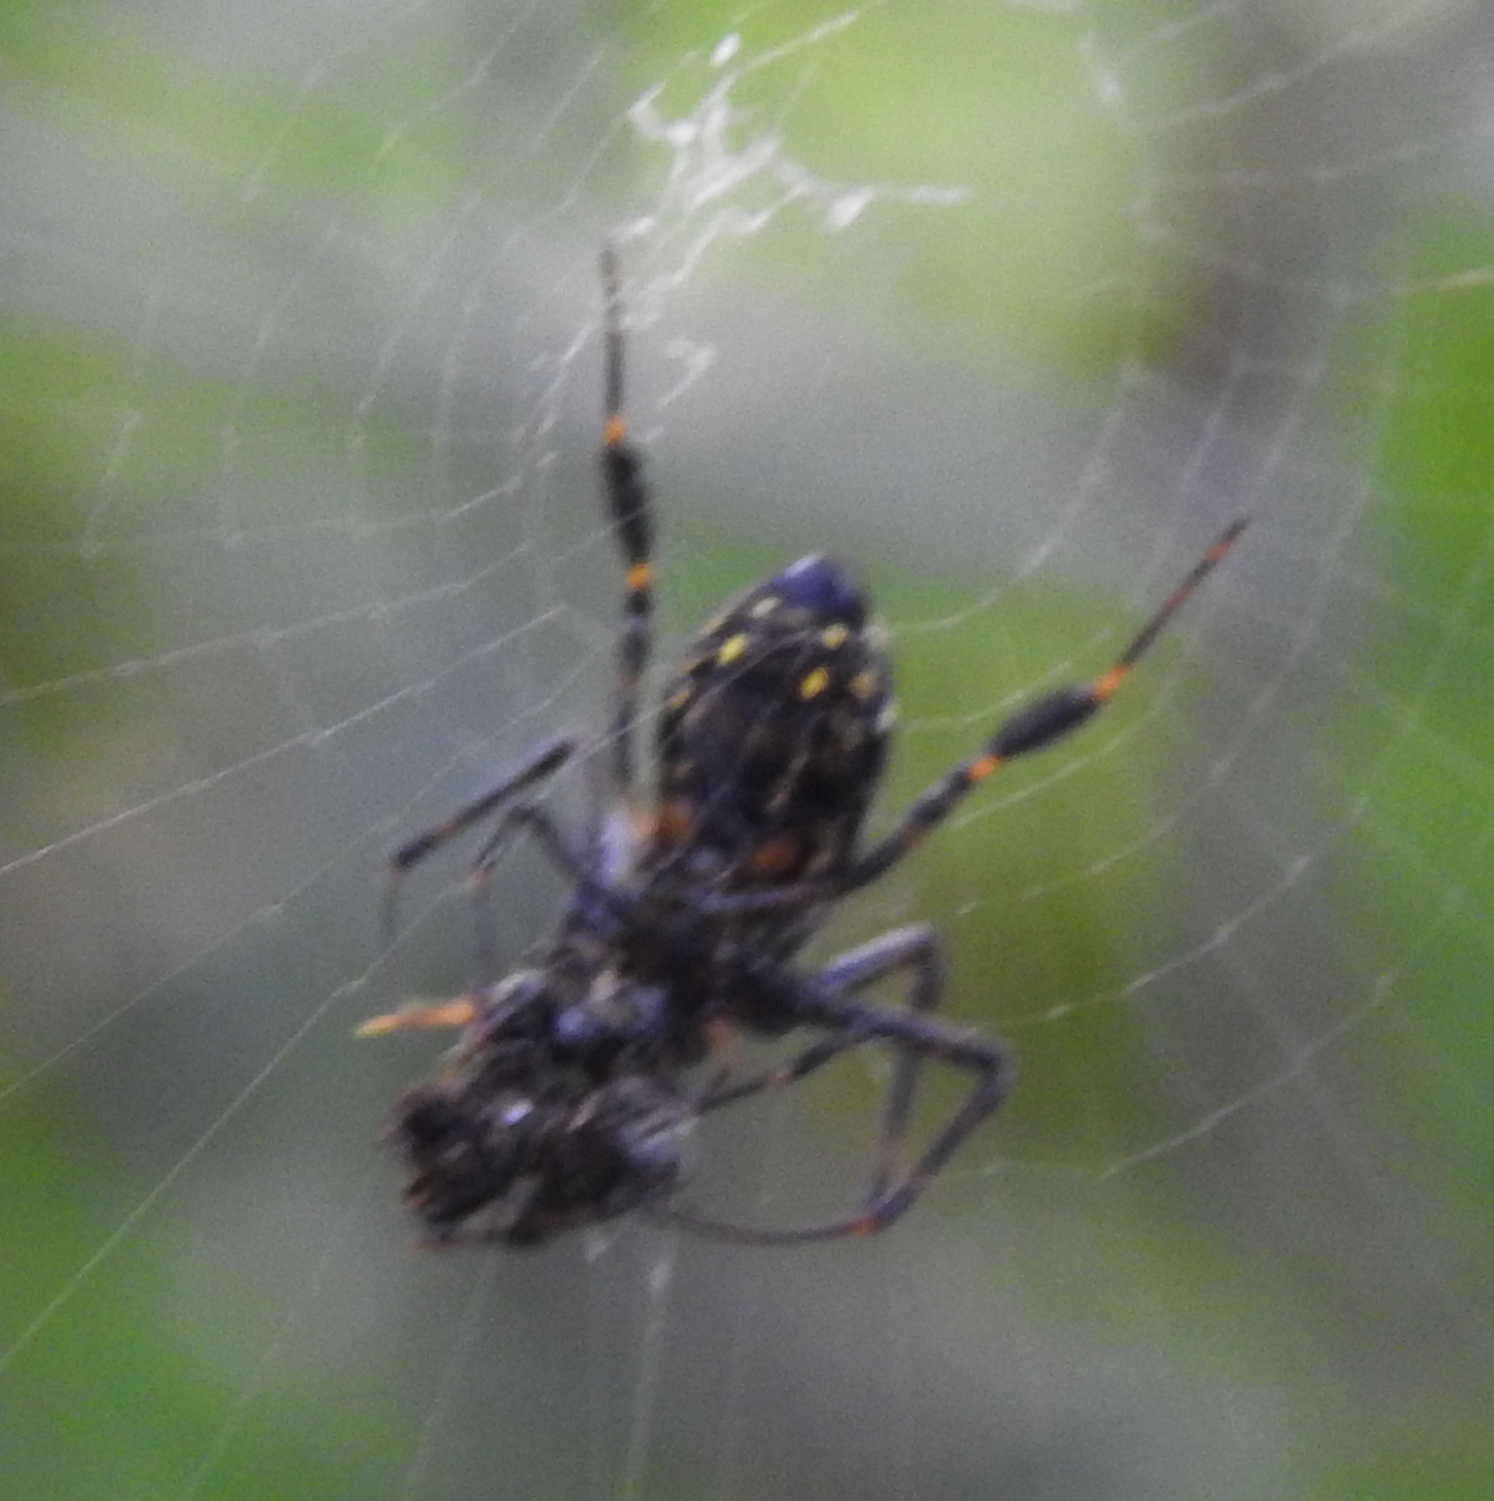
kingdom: Animalia
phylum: Arthropoda
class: Arachnida
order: Araneae
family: Tetragnathidae
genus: Leucauge
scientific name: Leucauge fastigata
